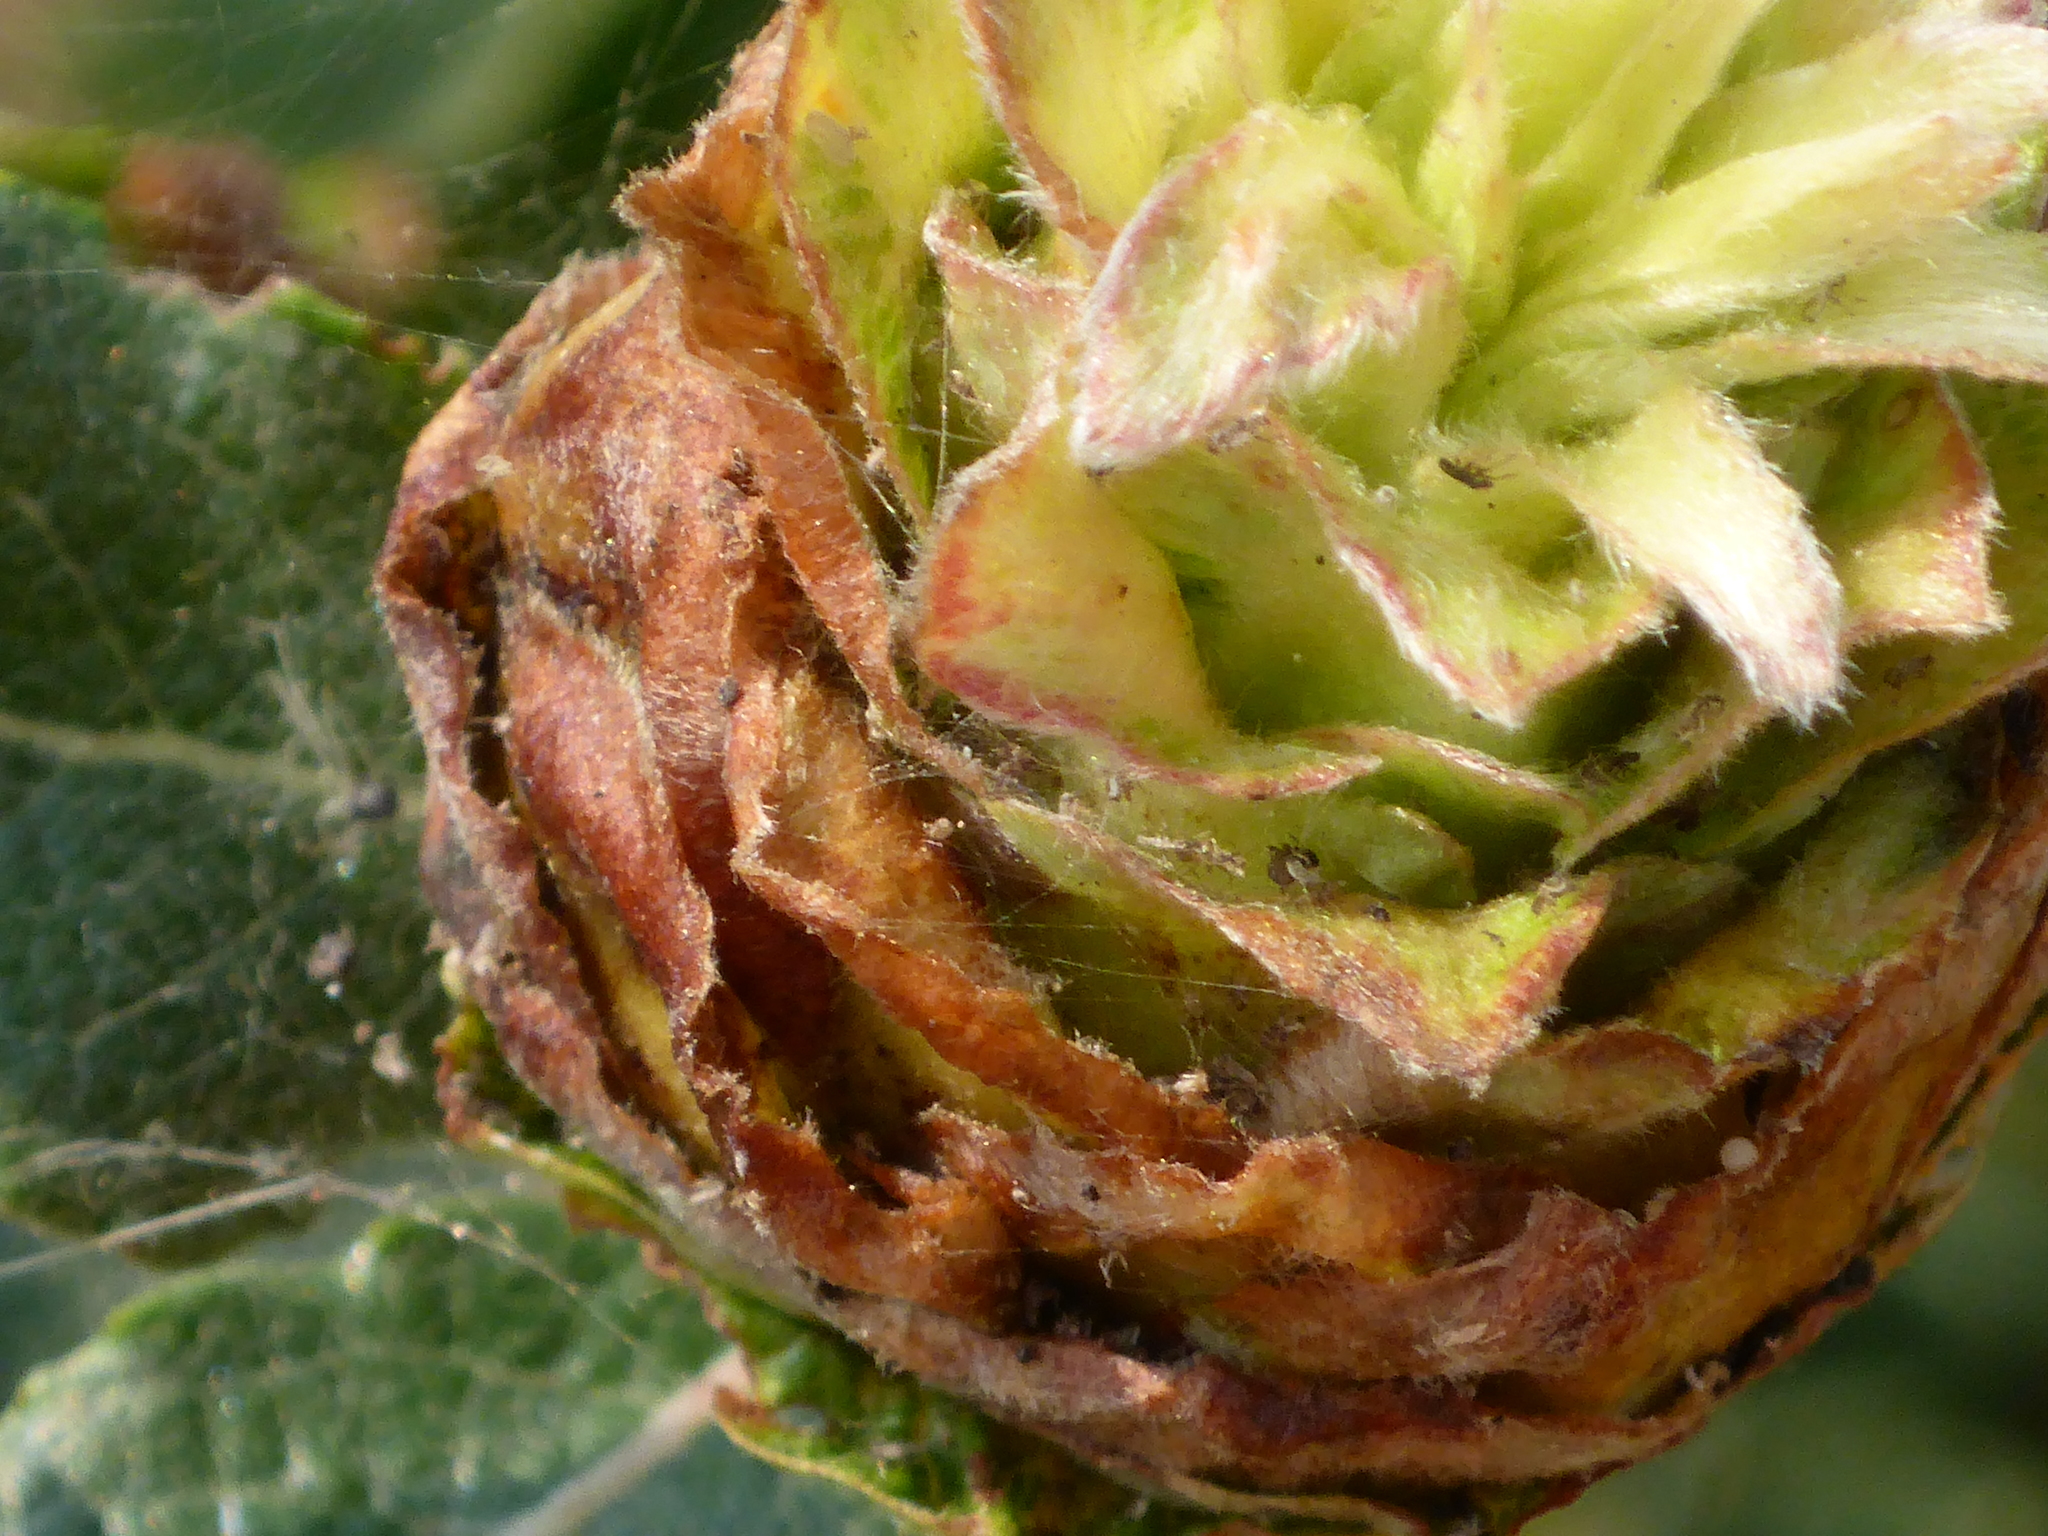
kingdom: Animalia
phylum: Arthropoda
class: Insecta
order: Diptera
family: Cecidomyiidae
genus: Rabdophaga
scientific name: Rabdophaga strobiloides
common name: Willow pinecone gall midge
